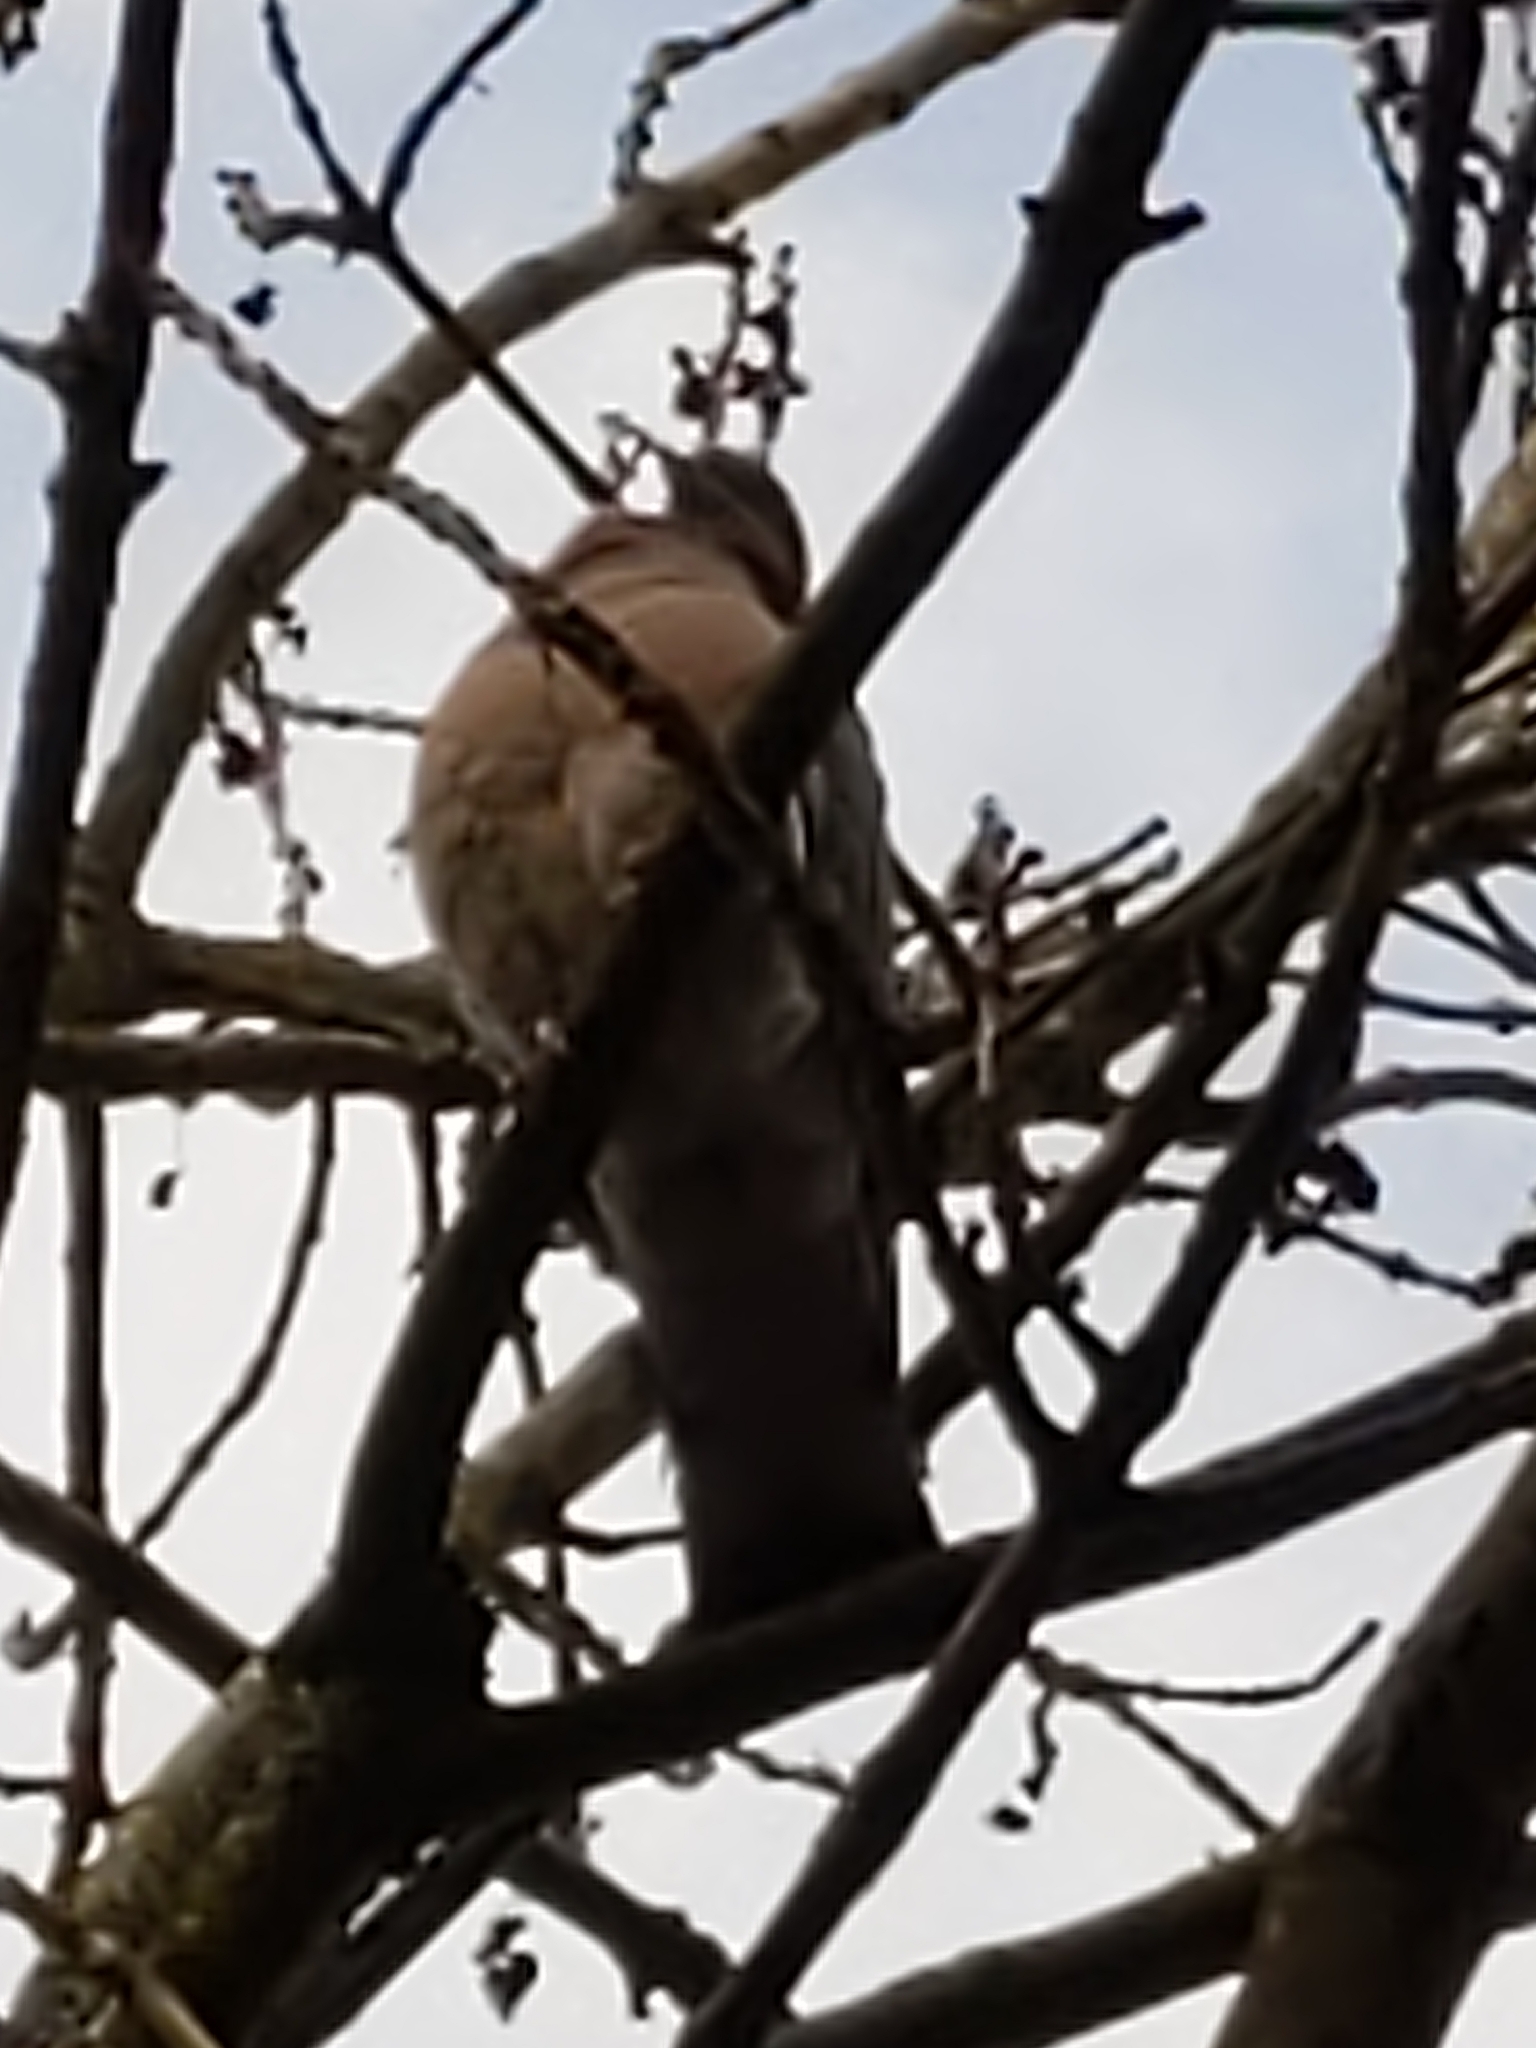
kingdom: Animalia
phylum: Chordata
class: Aves
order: Columbiformes
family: Columbidae
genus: Columba
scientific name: Columba palumbus
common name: Common wood pigeon
